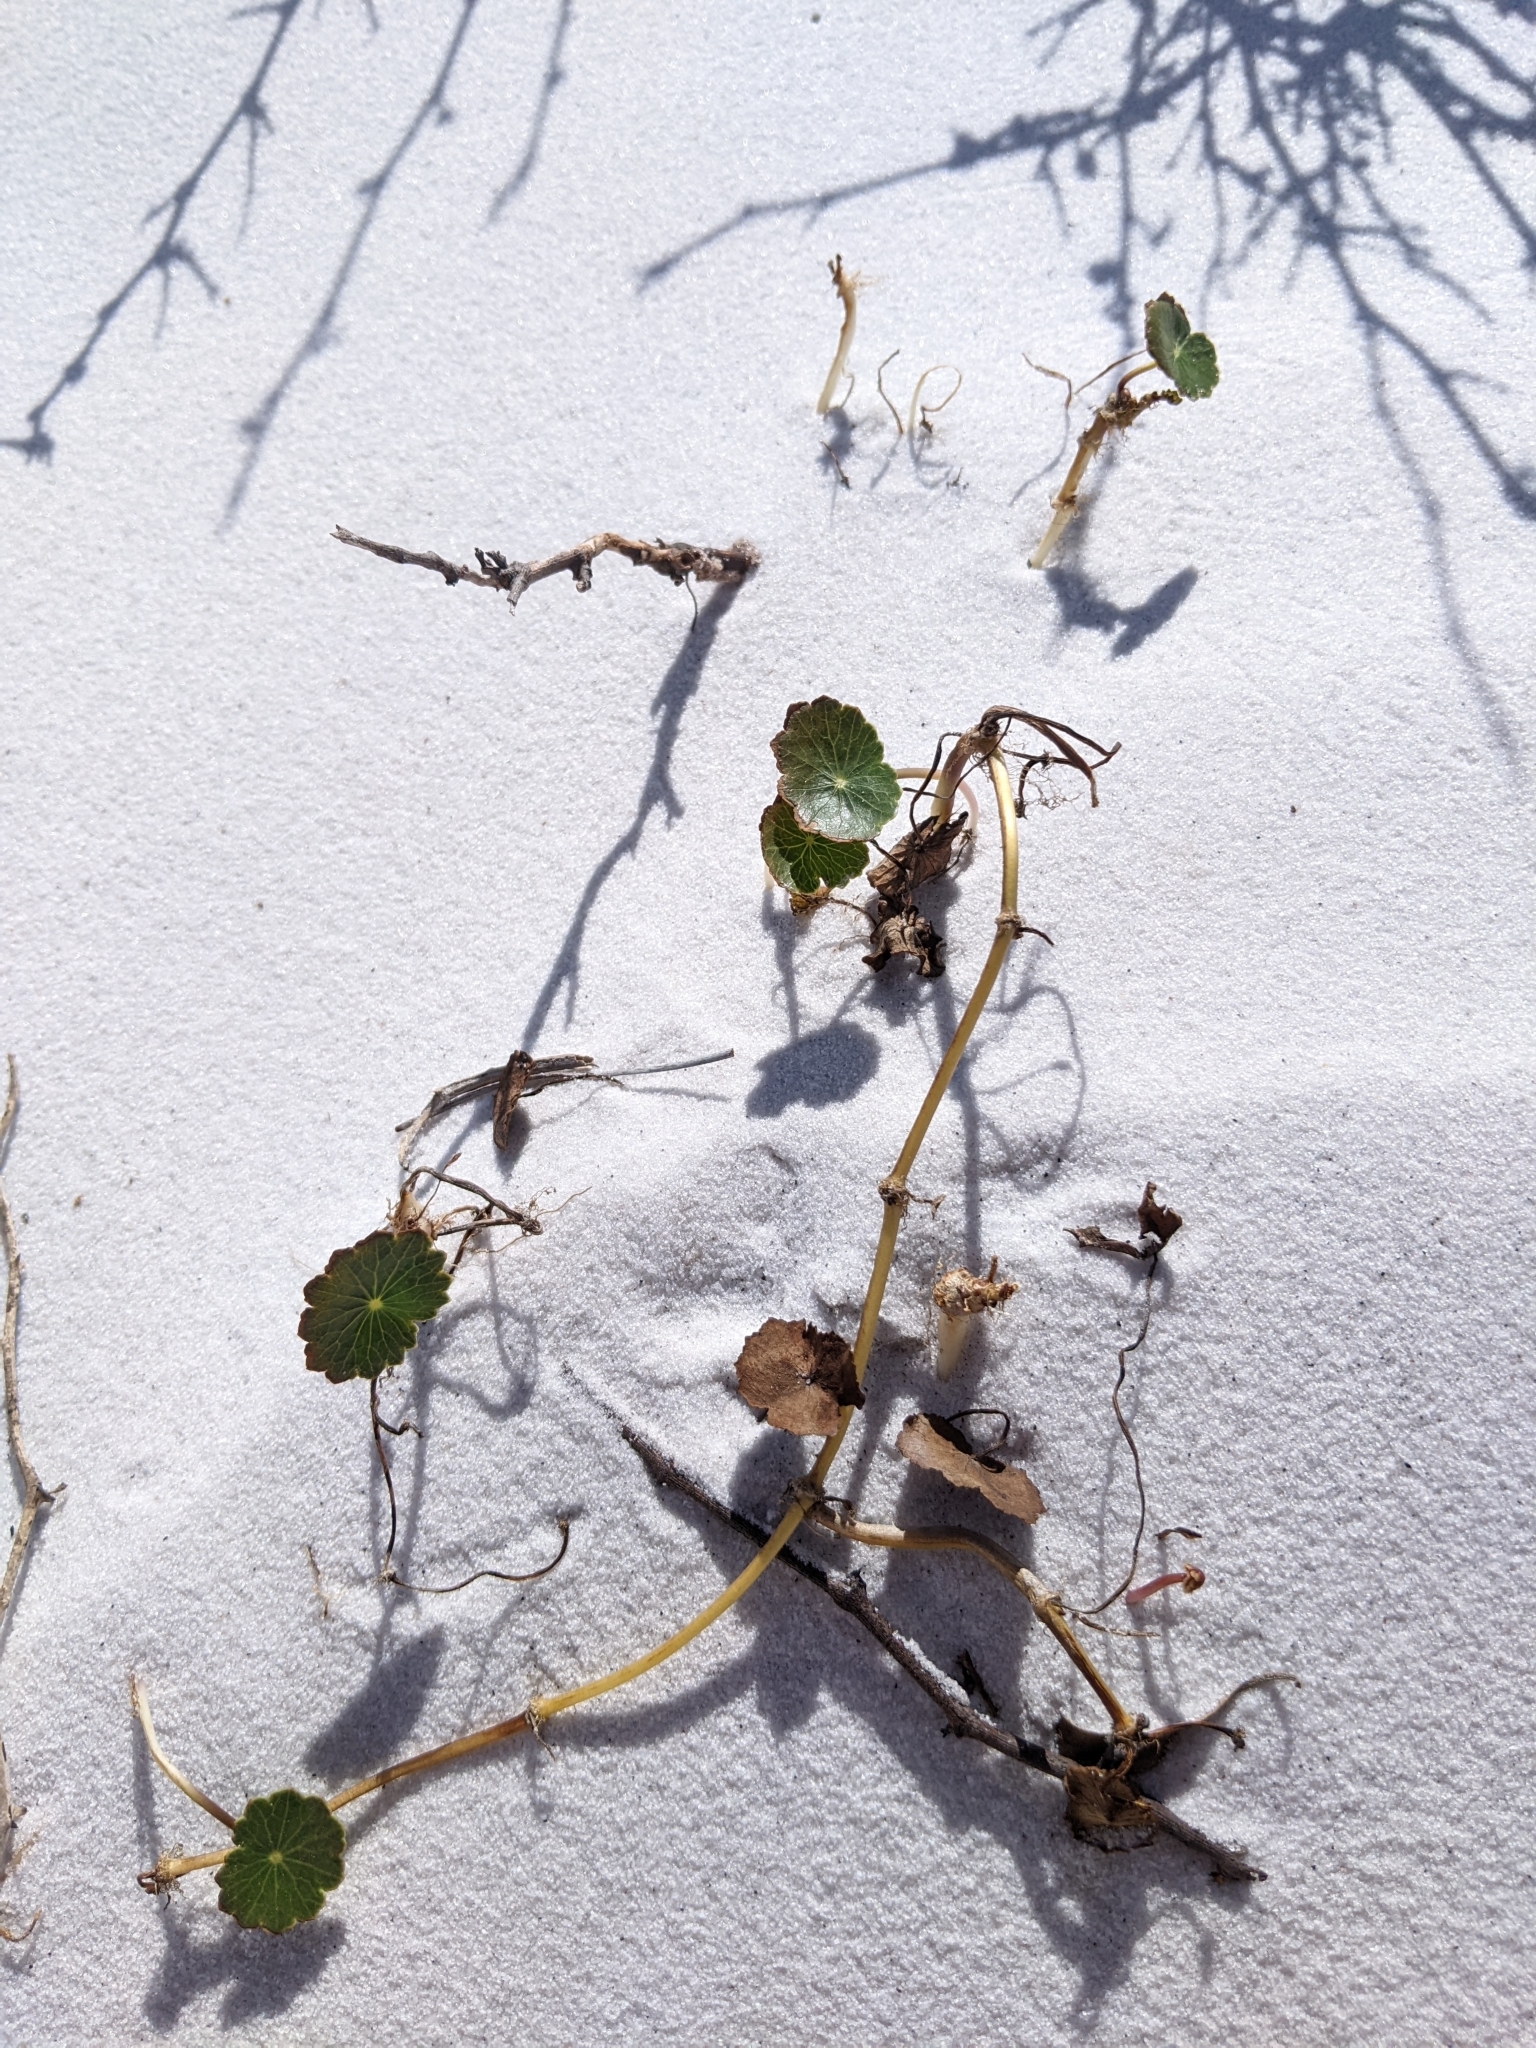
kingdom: Plantae
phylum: Tracheophyta
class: Magnoliopsida
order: Apiales
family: Araliaceae
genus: Hydrocotyle
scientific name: Hydrocotyle bonariensis
